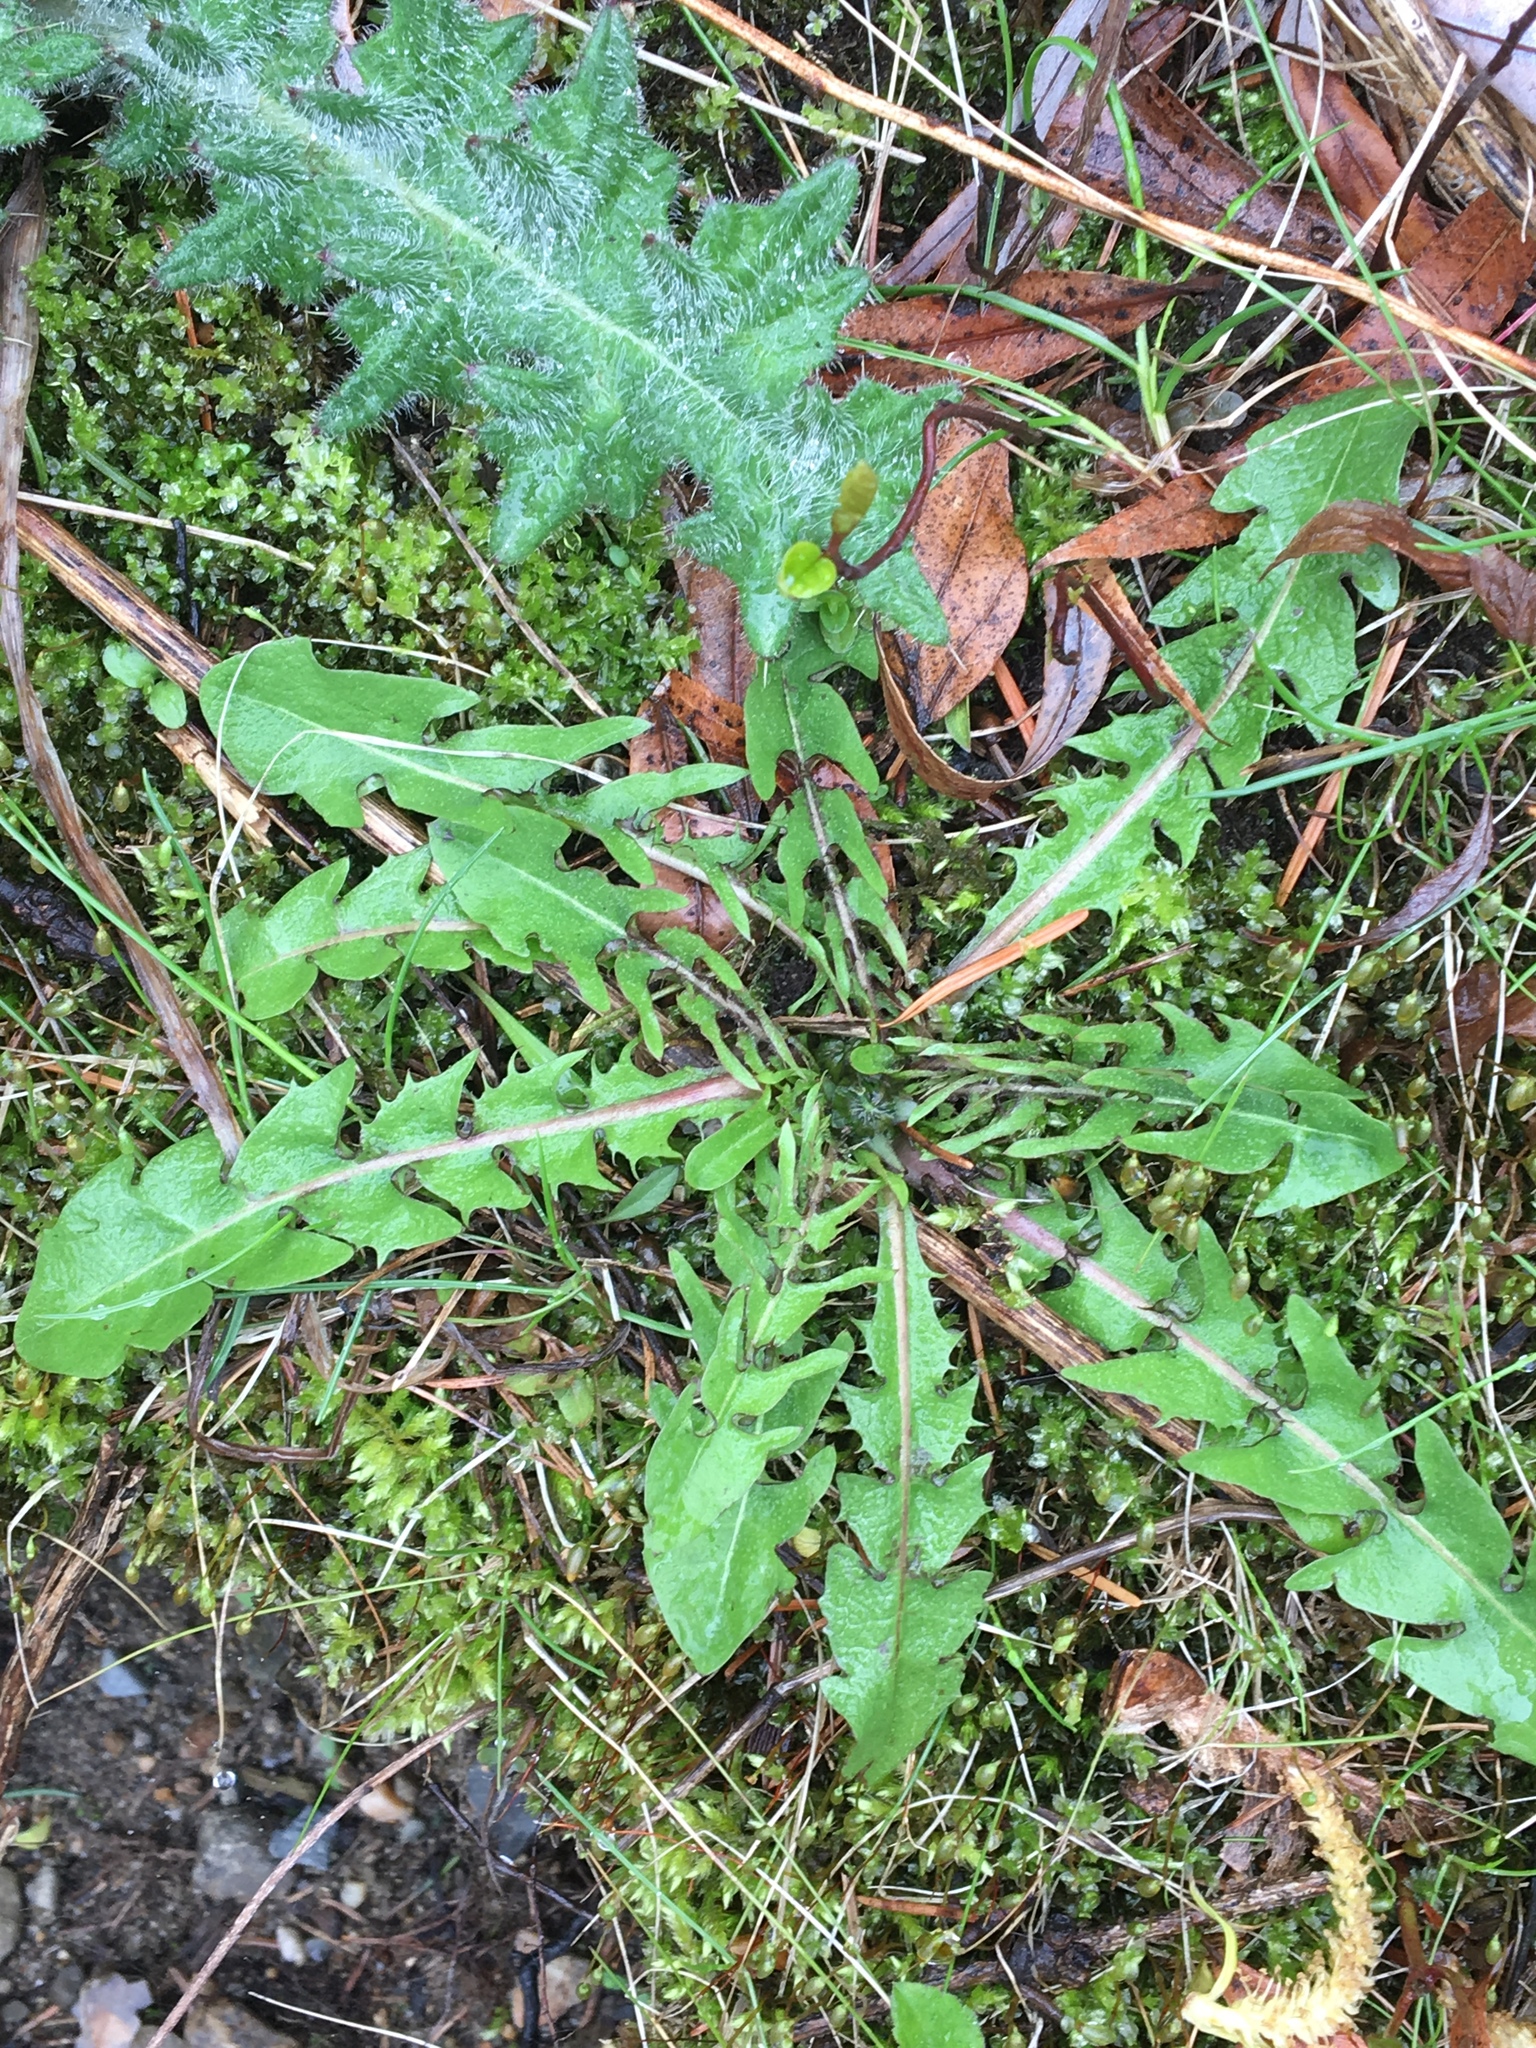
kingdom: Plantae
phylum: Tracheophyta
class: Magnoliopsida
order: Asterales
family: Asteraceae
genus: Taraxacum
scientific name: Taraxacum officinale
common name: Common dandelion
